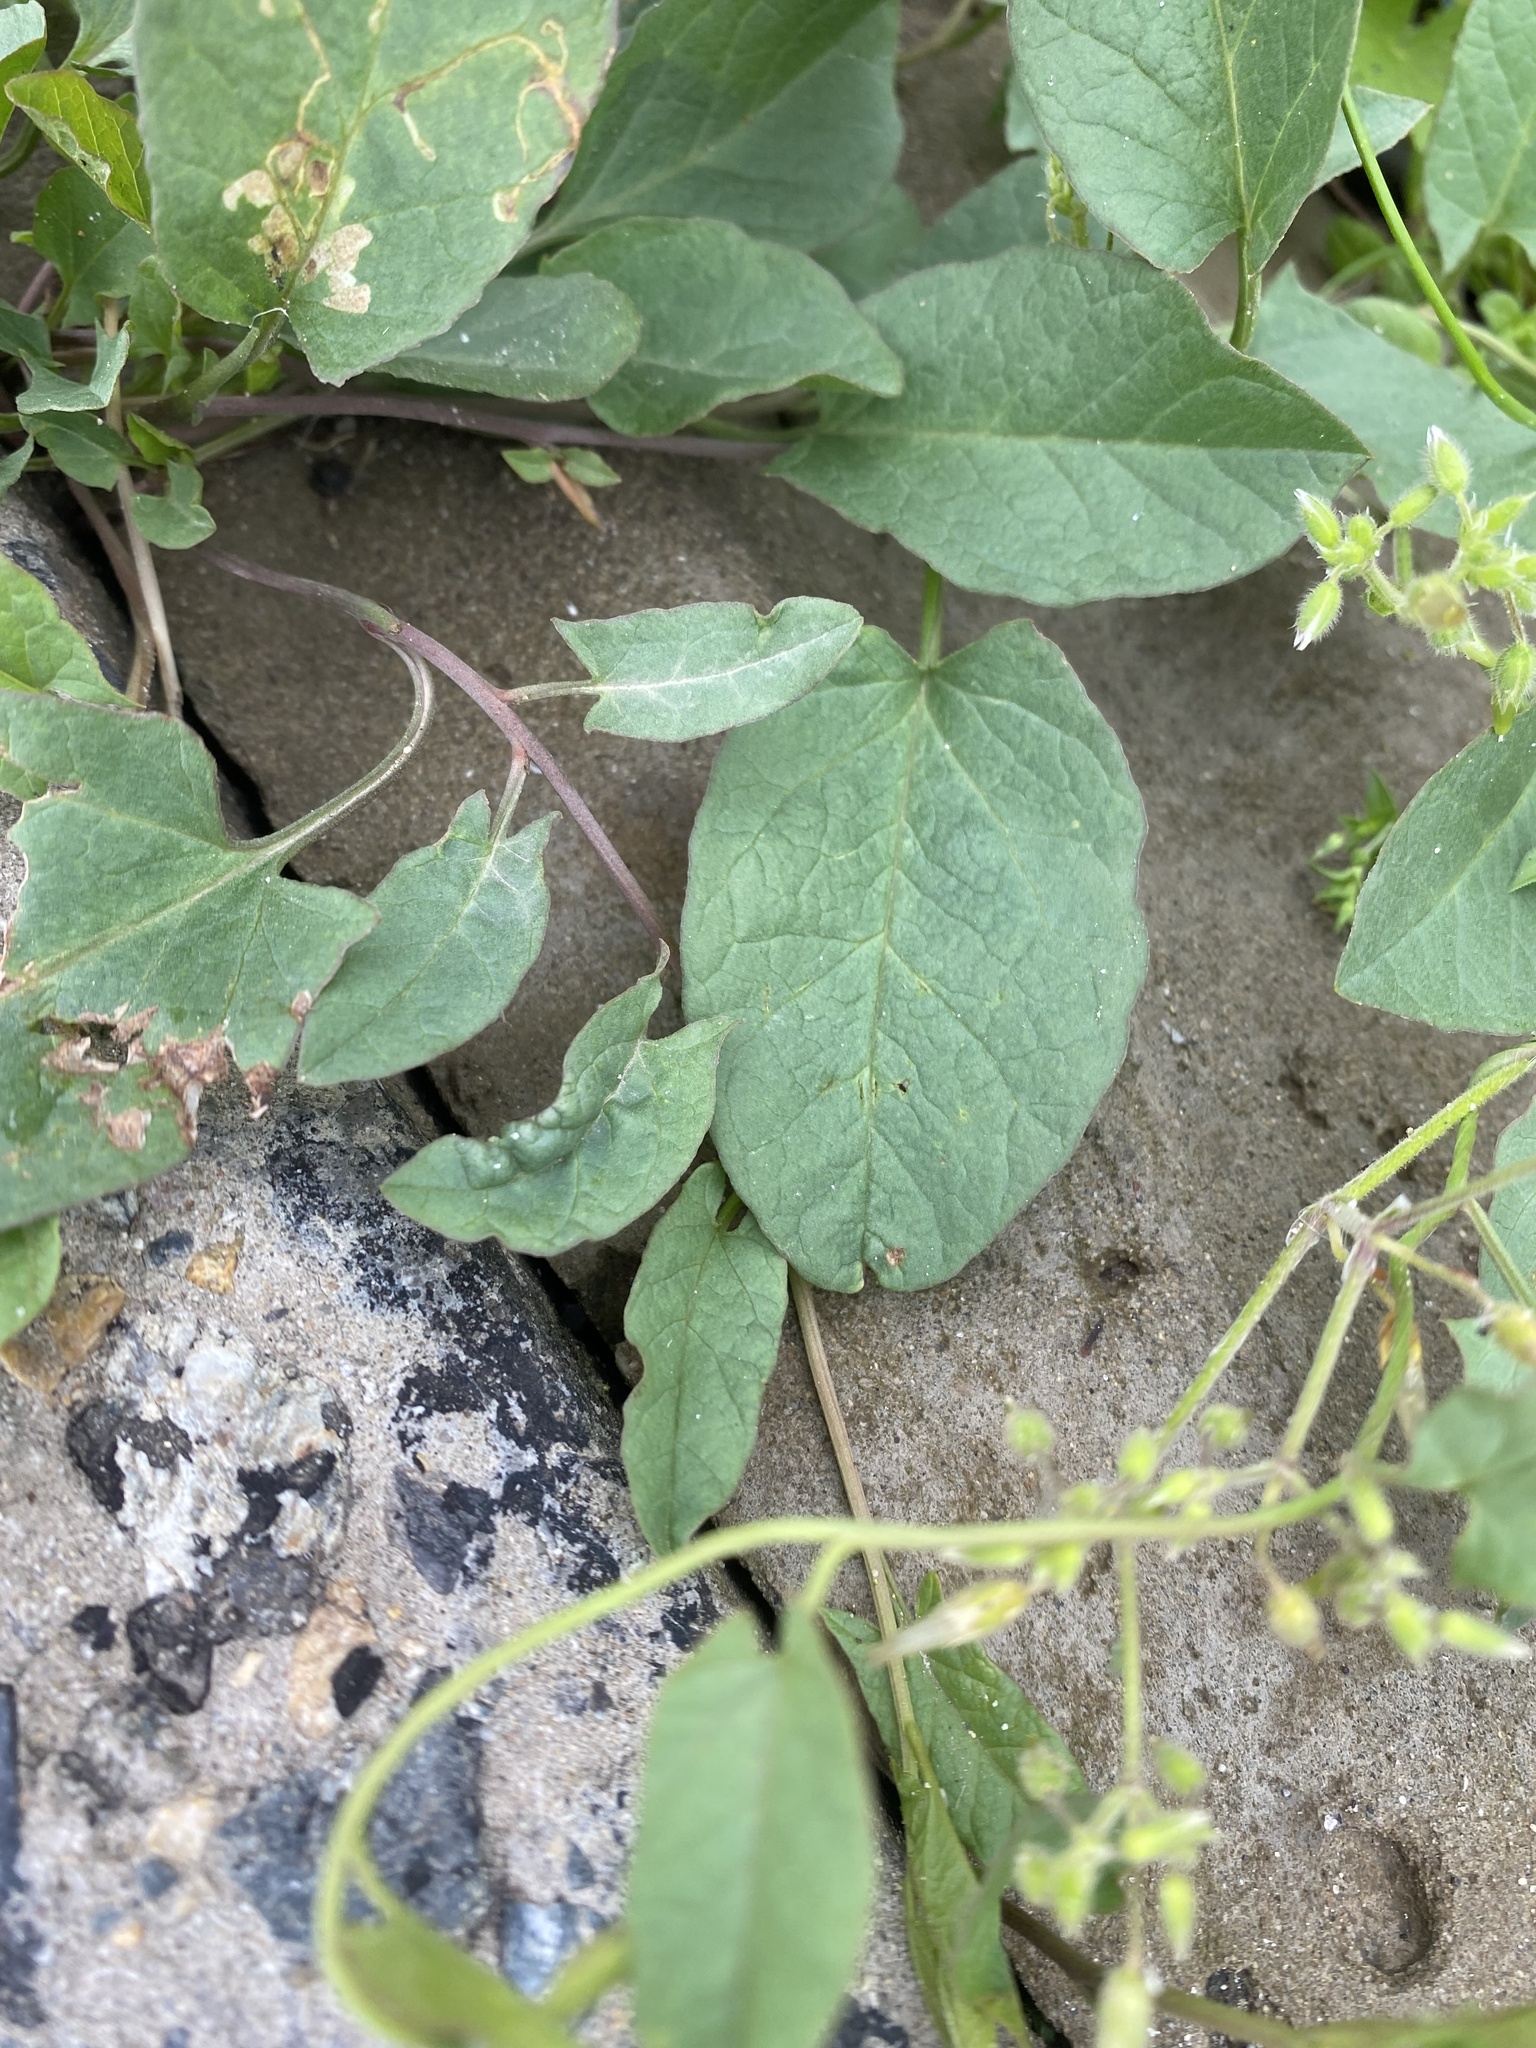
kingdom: Plantae
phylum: Tracheophyta
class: Magnoliopsida
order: Solanales
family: Convolvulaceae
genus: Convolvulus
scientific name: Convolvulus arvensis
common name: Field bindweed
